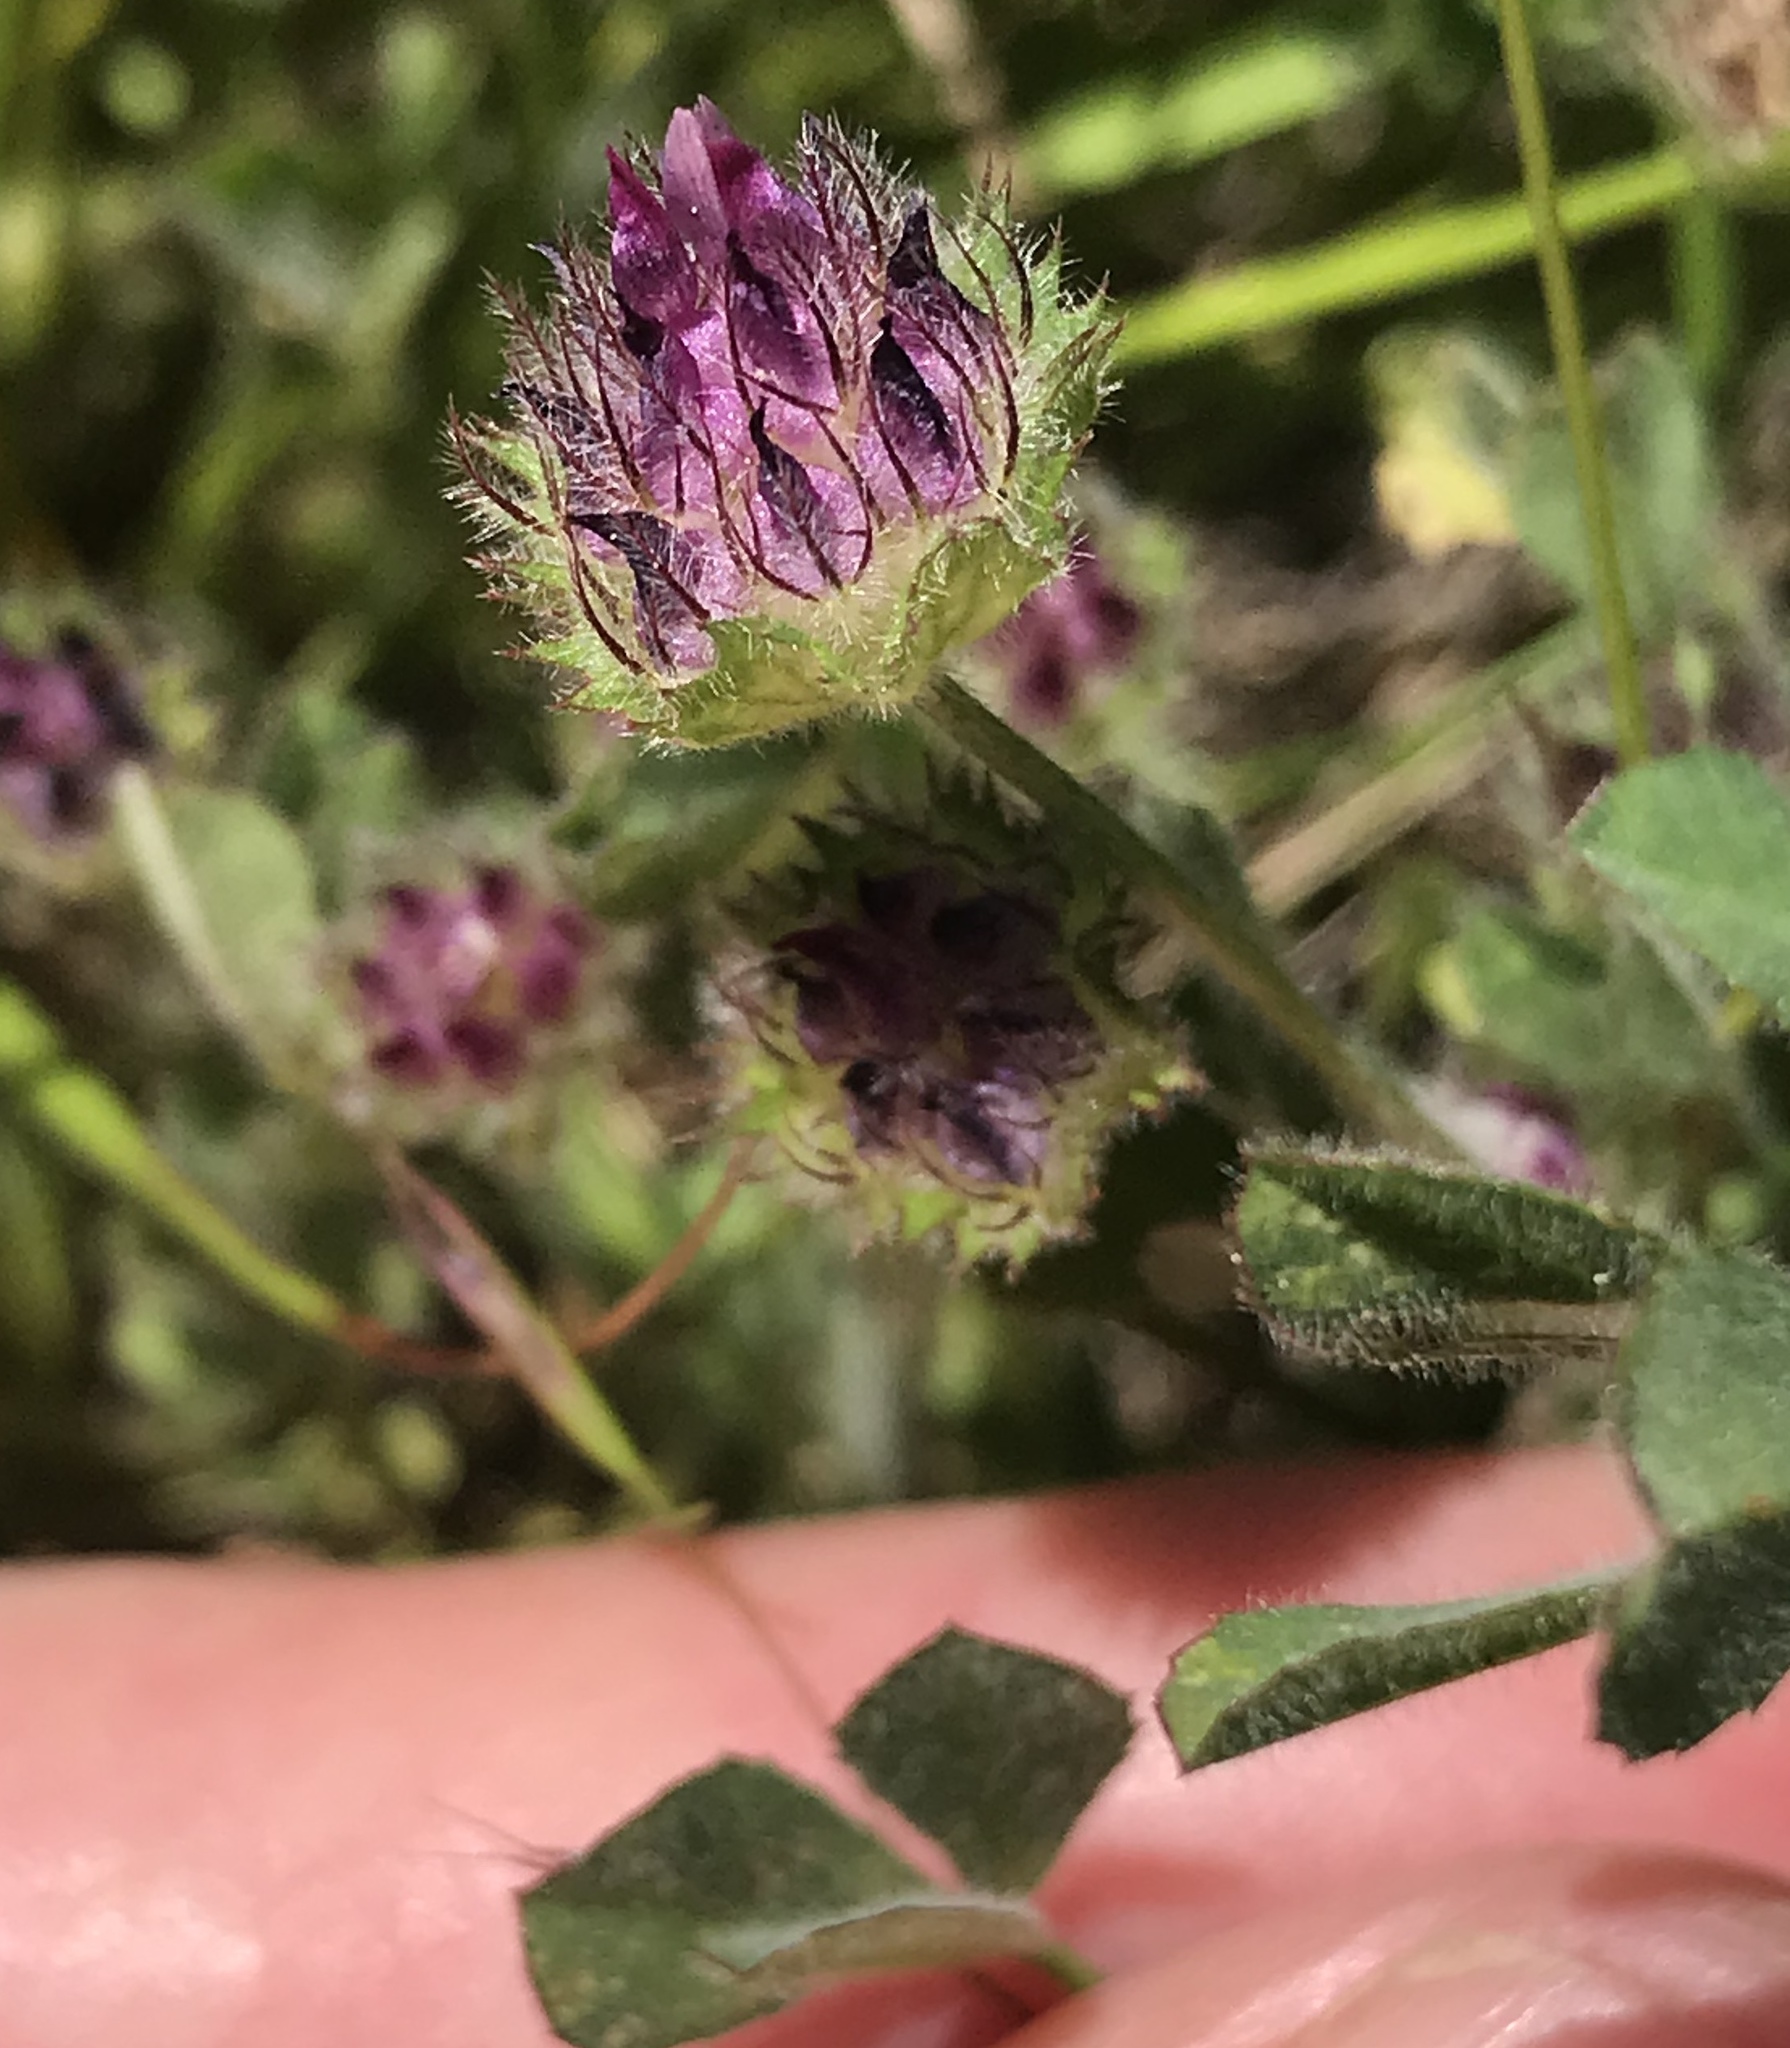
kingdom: Plantae
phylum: Tracheophyta
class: Magnoliopsida
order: Fabales
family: Fabaceae
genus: Trifolium
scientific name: Trifolium barbigerum
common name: Bearded clover
